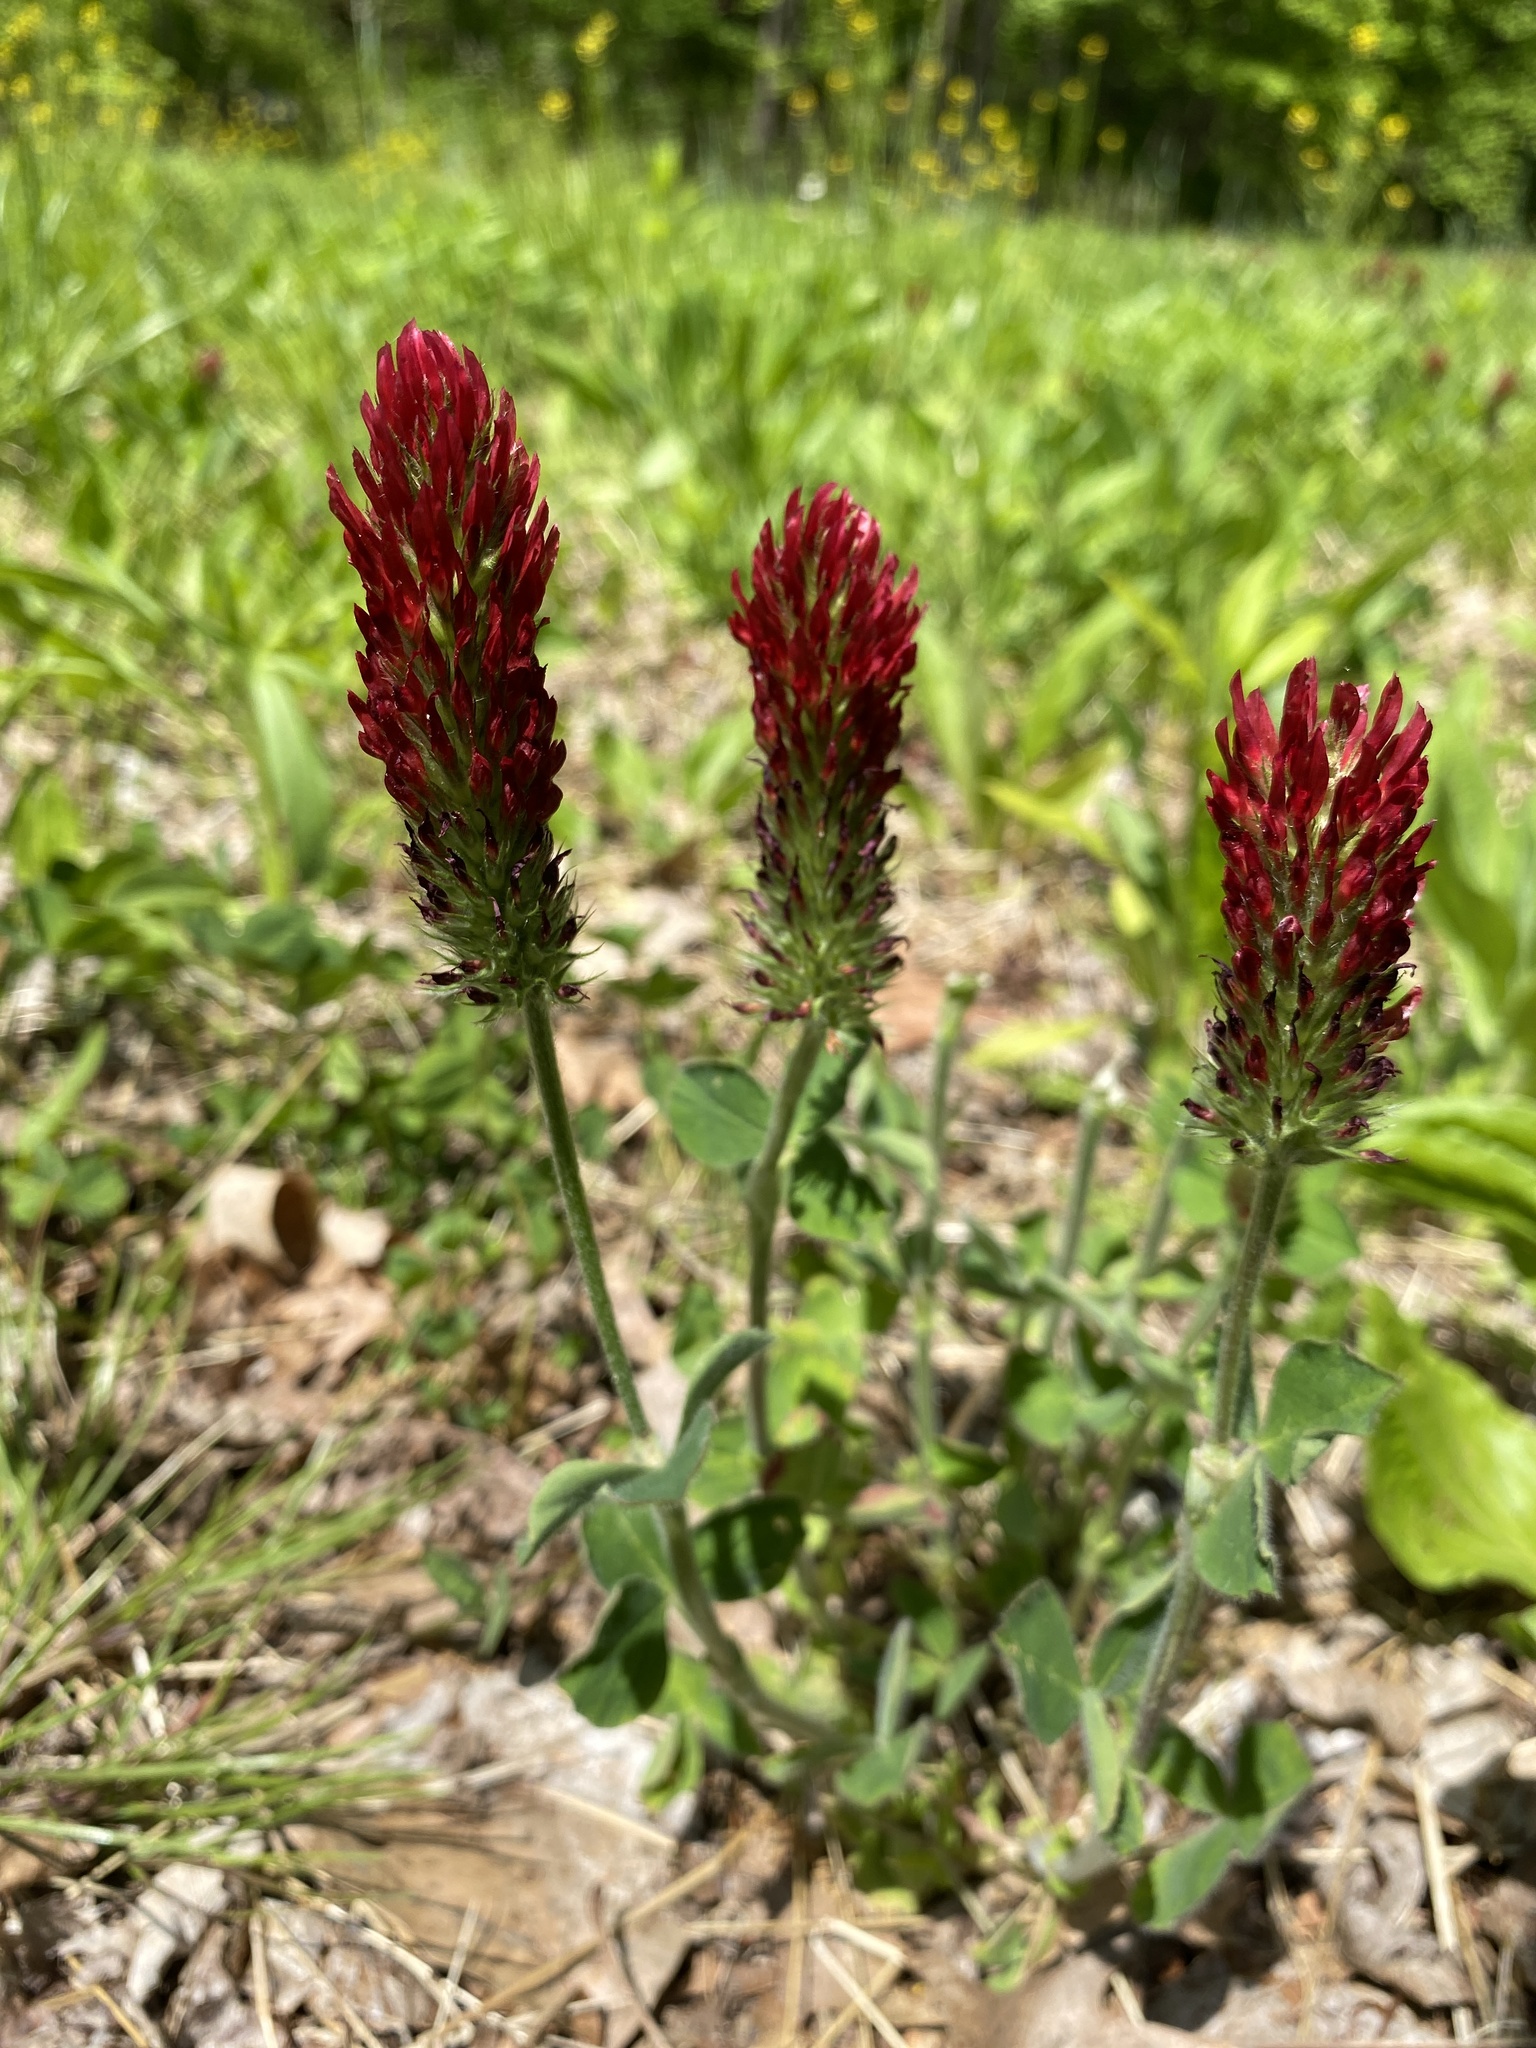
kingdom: Plantae
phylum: Tracheophyta
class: Magnoliopsida
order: Fabales
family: Fabaceae
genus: Trifolium
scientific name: Trifolium incarnatum
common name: Crimson clover
